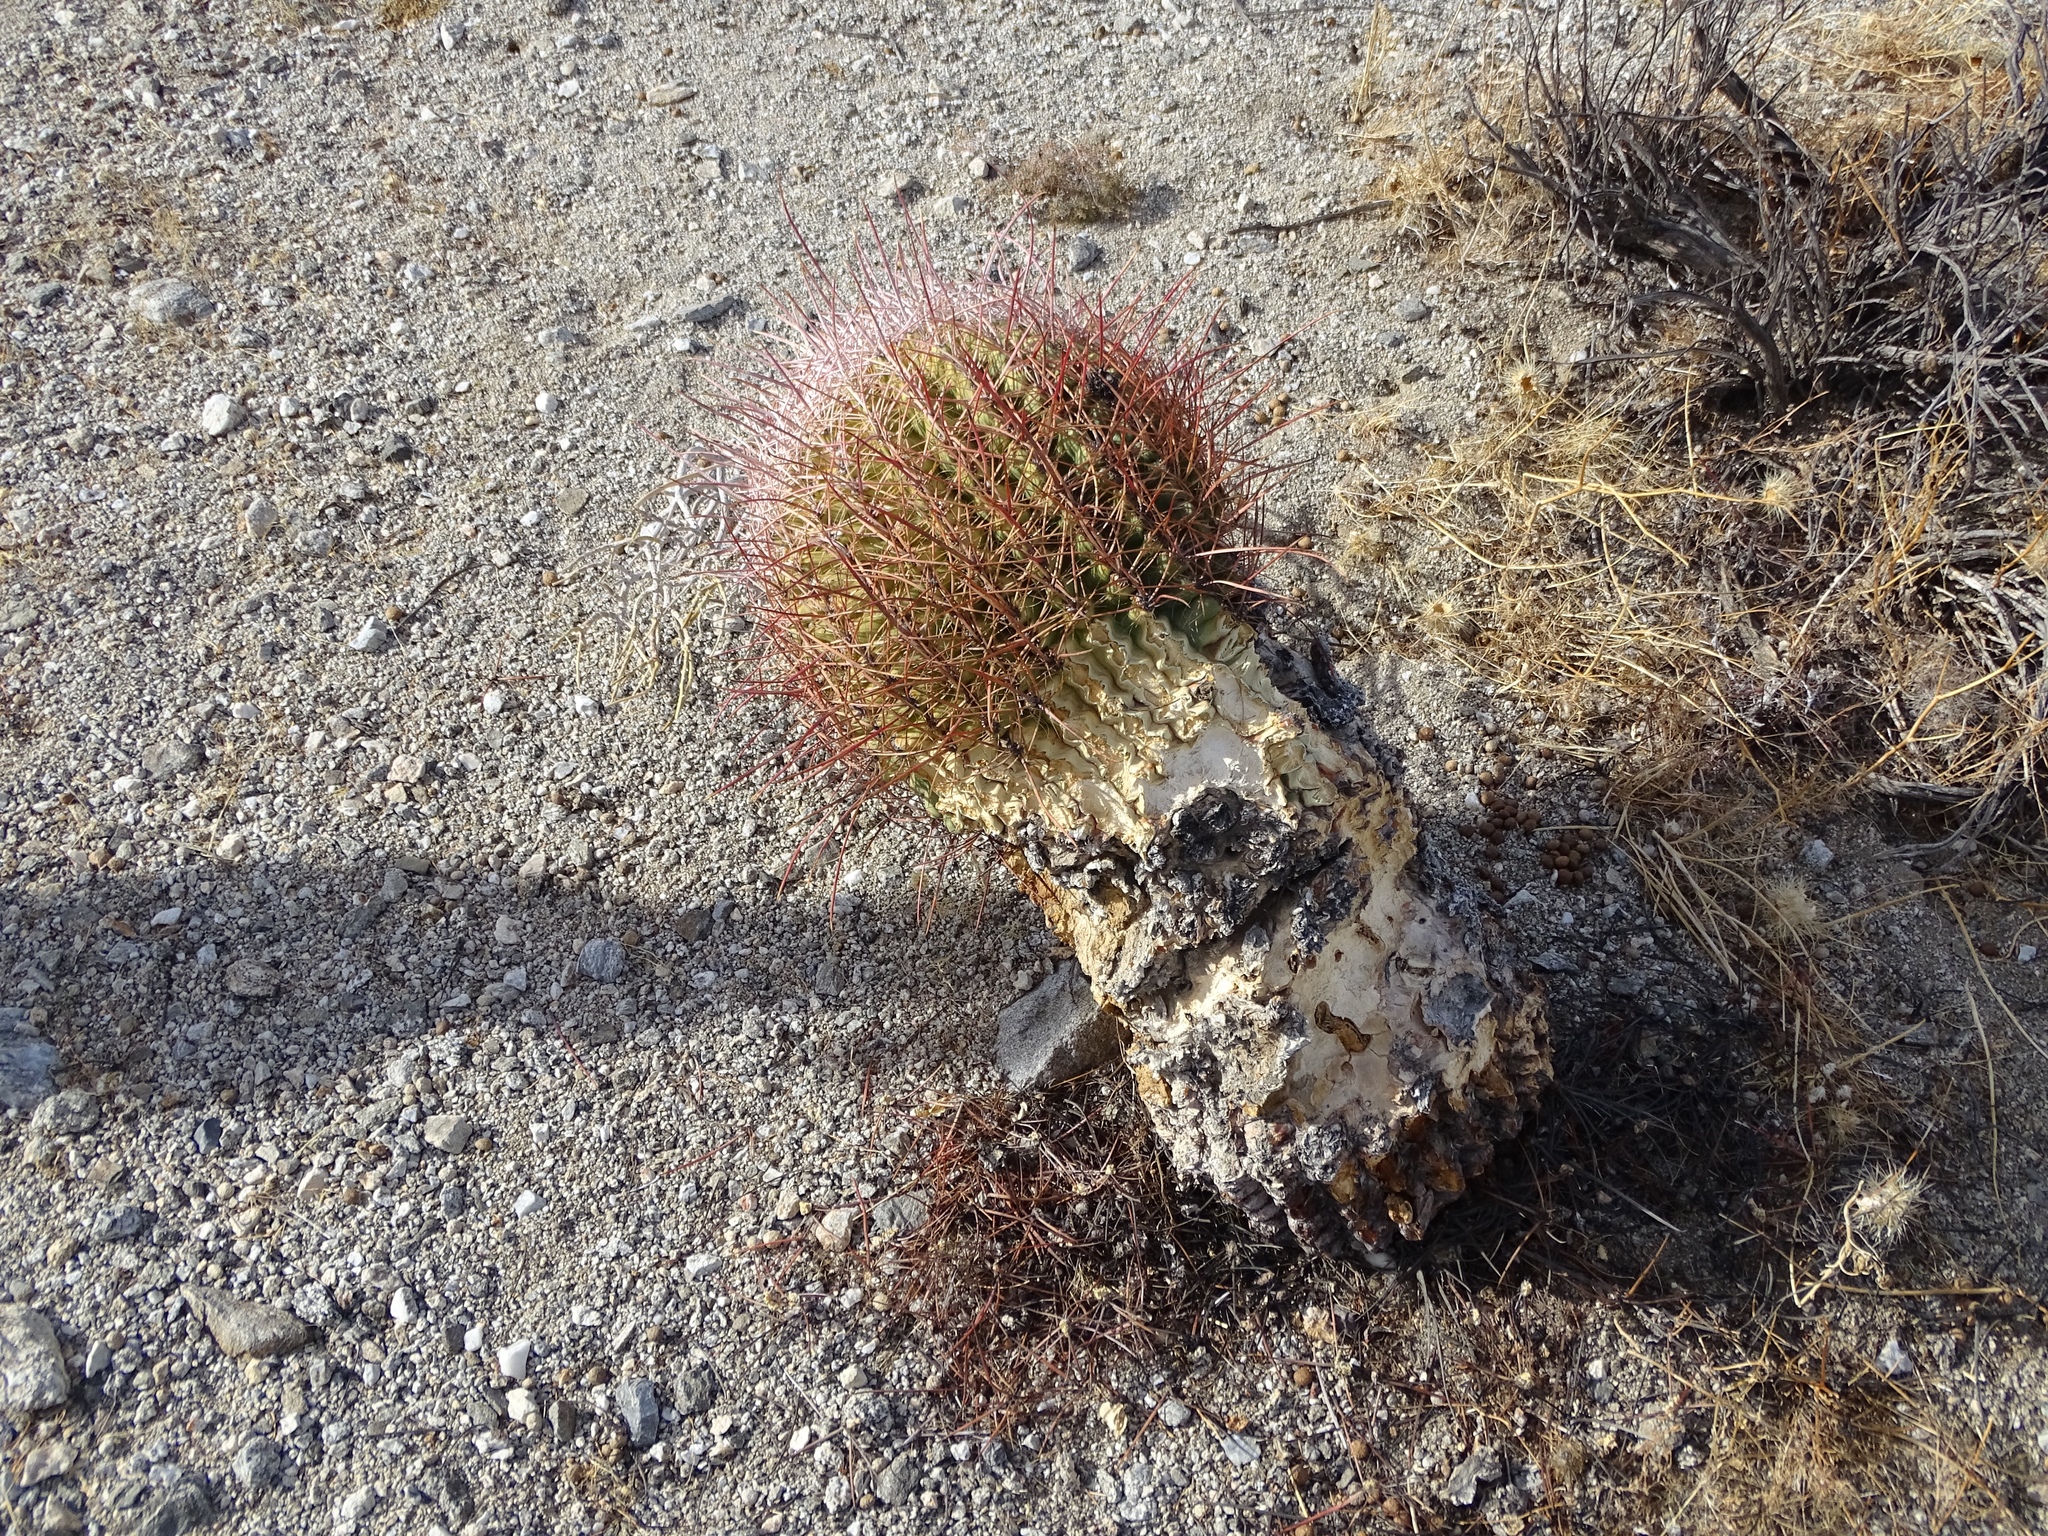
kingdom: Plantae
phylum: Tracheophyta
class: Magnoliopsida
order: Caryophyllales
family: Cactaceae
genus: Ferocactus
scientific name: Ferocactus cylindraceus
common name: California barrel cactus
